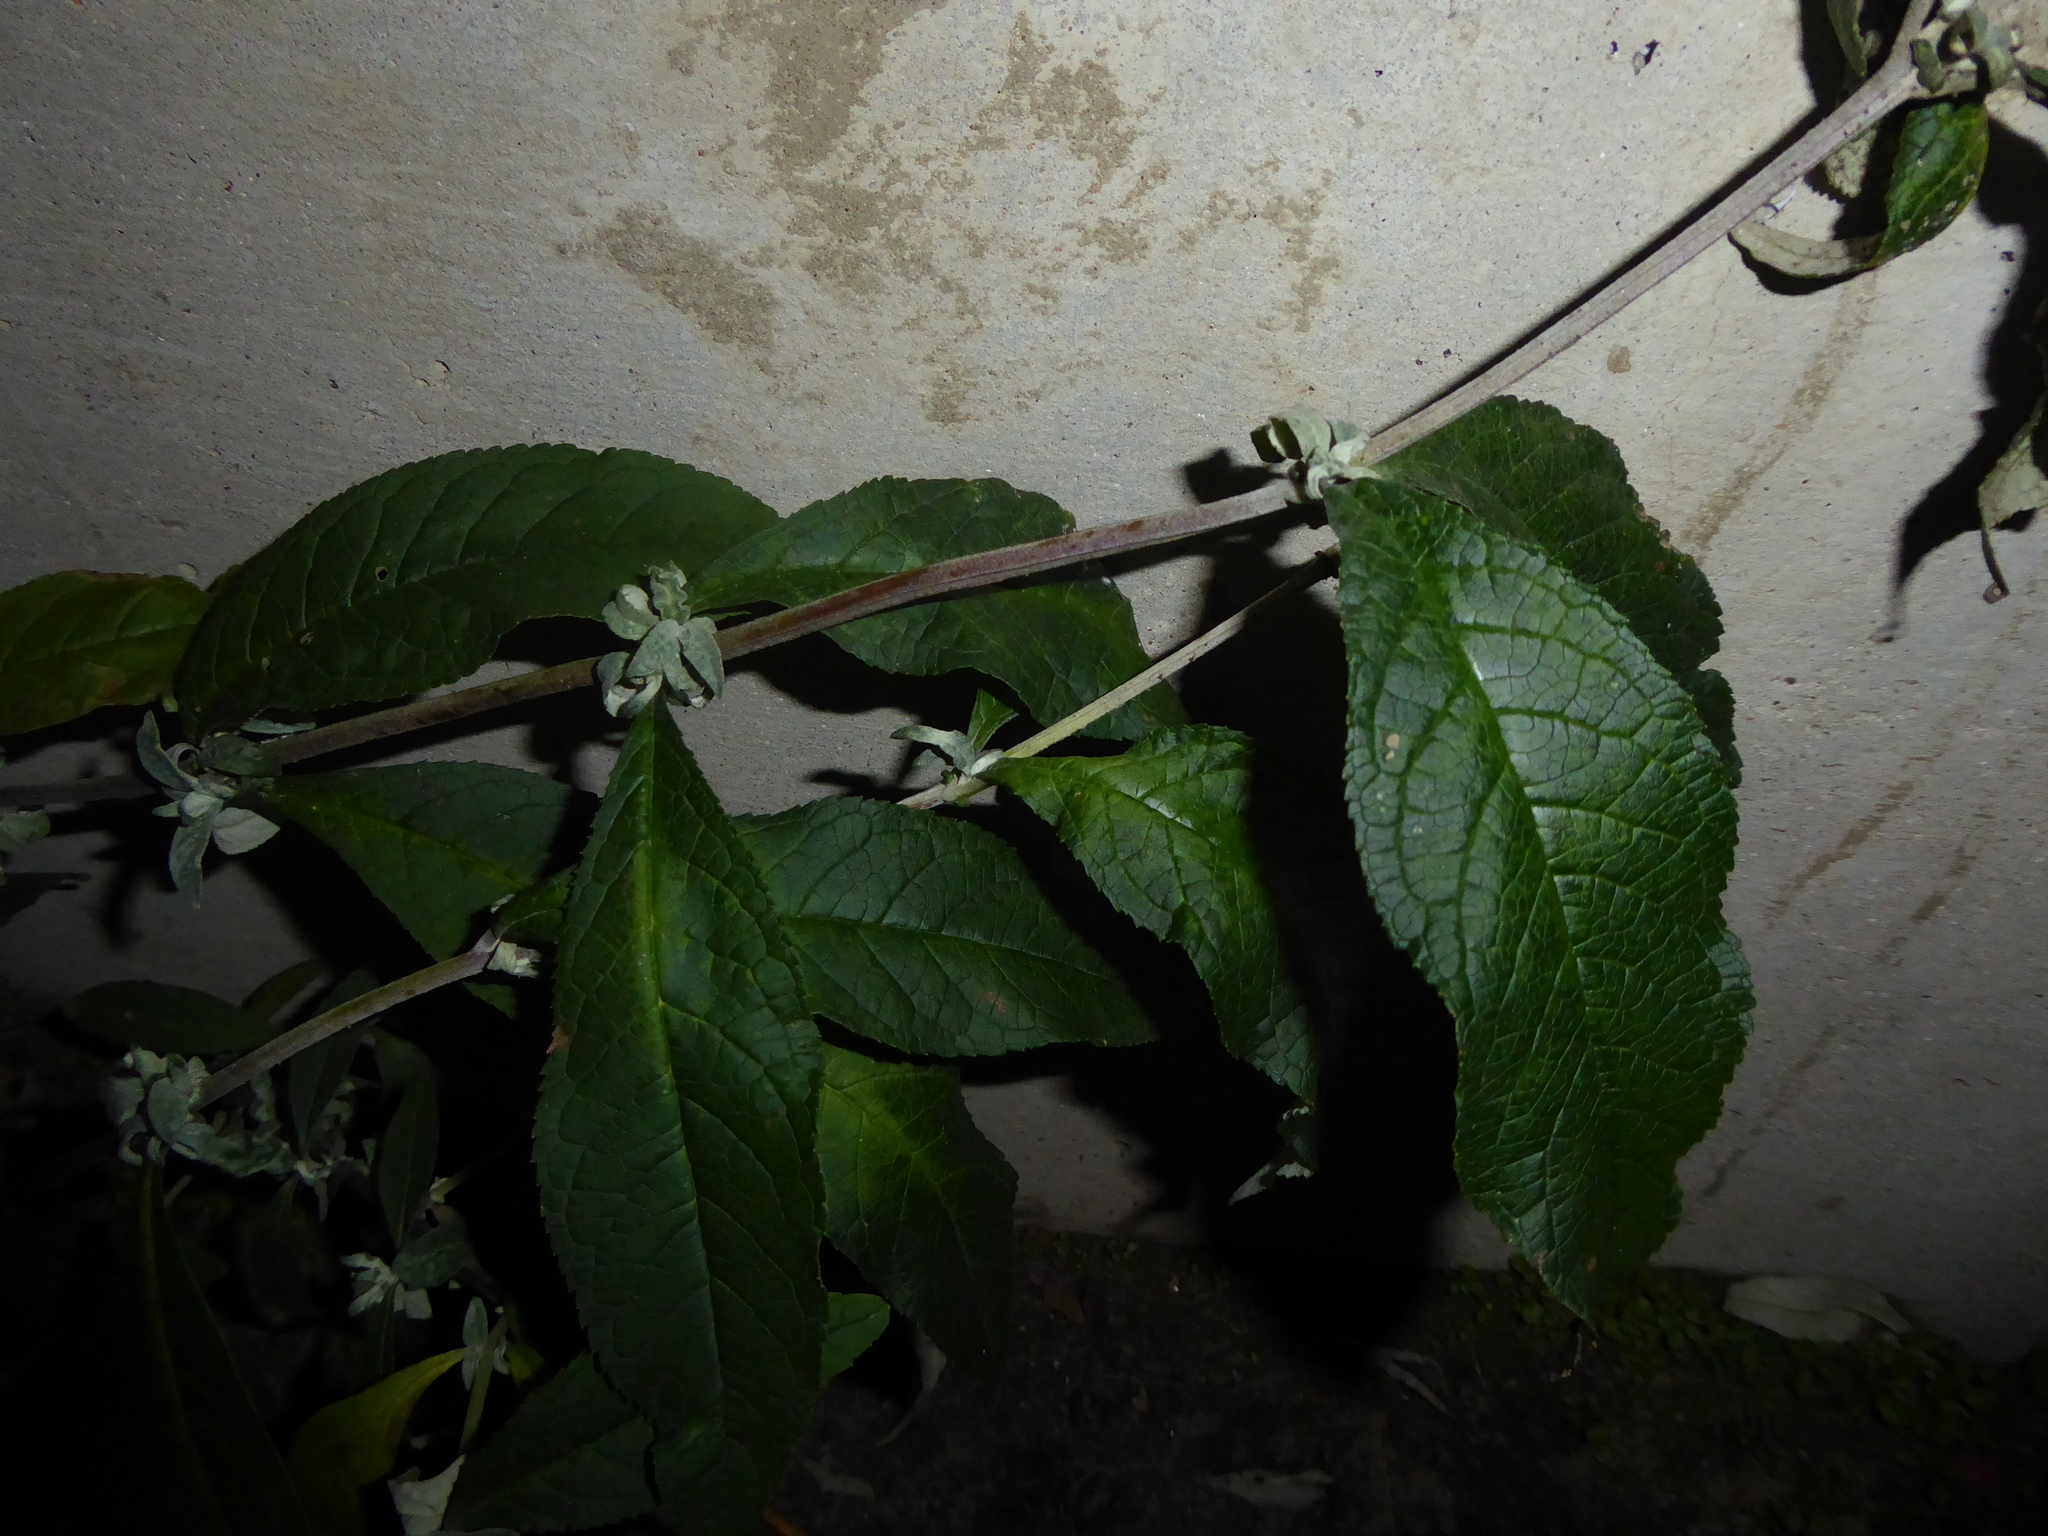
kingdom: Plantae
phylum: Tracheophyta
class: Magnoliopsida
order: Lamiales
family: Scrophulariaceae
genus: Buddleja
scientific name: Buddleja davidii
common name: Butterfly-bush
